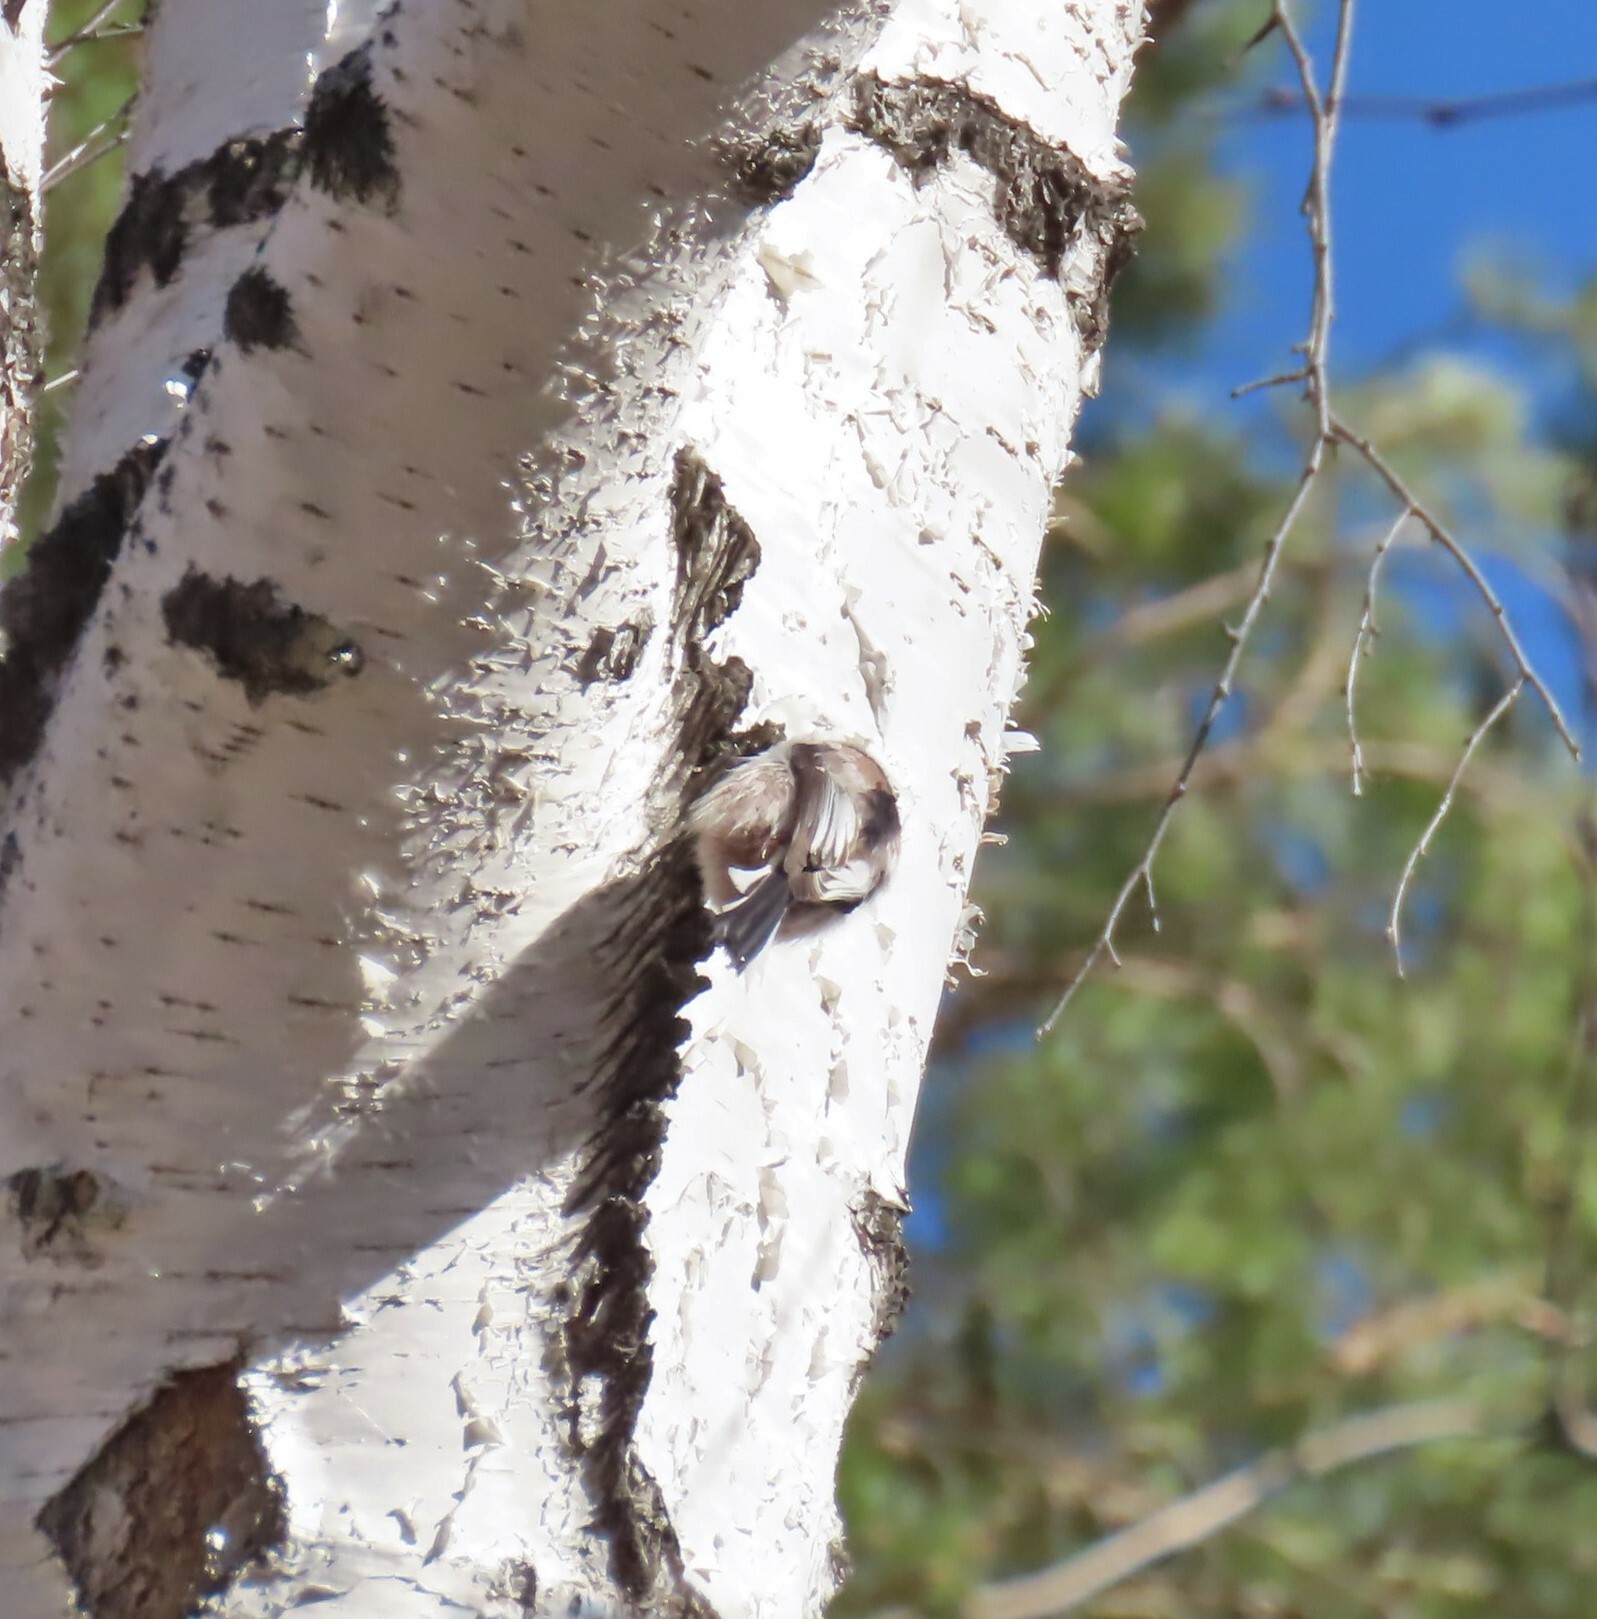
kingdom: Animalia
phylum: Chordata
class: Aves
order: Passeriformes
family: Aegithalidae
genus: Aegithalos
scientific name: Aegithalos caudatus
